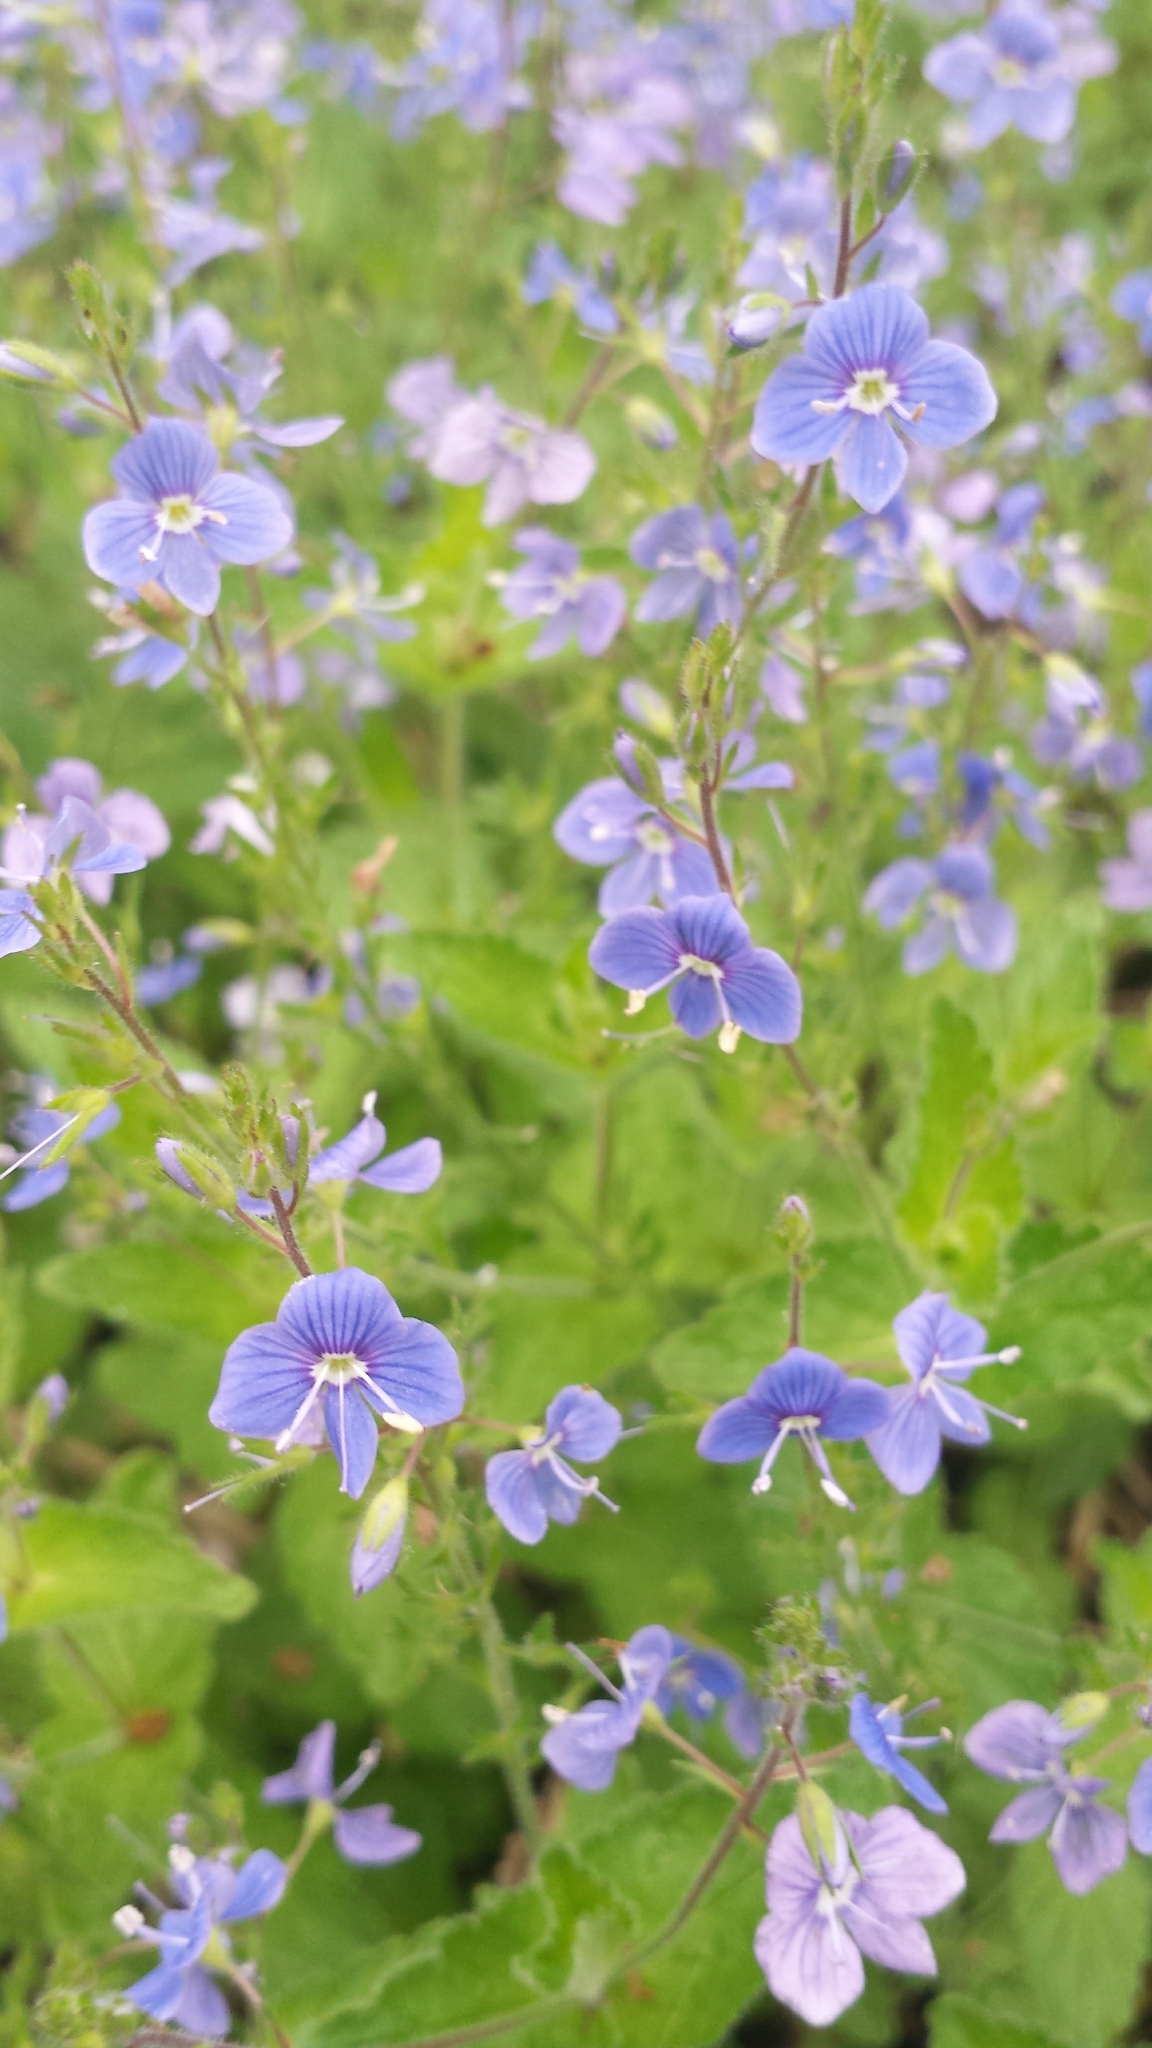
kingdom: Plantae
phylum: Tracheophyta
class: Magnoliopsida
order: Lamiales
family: Plantaginaceae
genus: Veronica
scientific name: Veronica chamaedrys
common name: Germander speedwell
